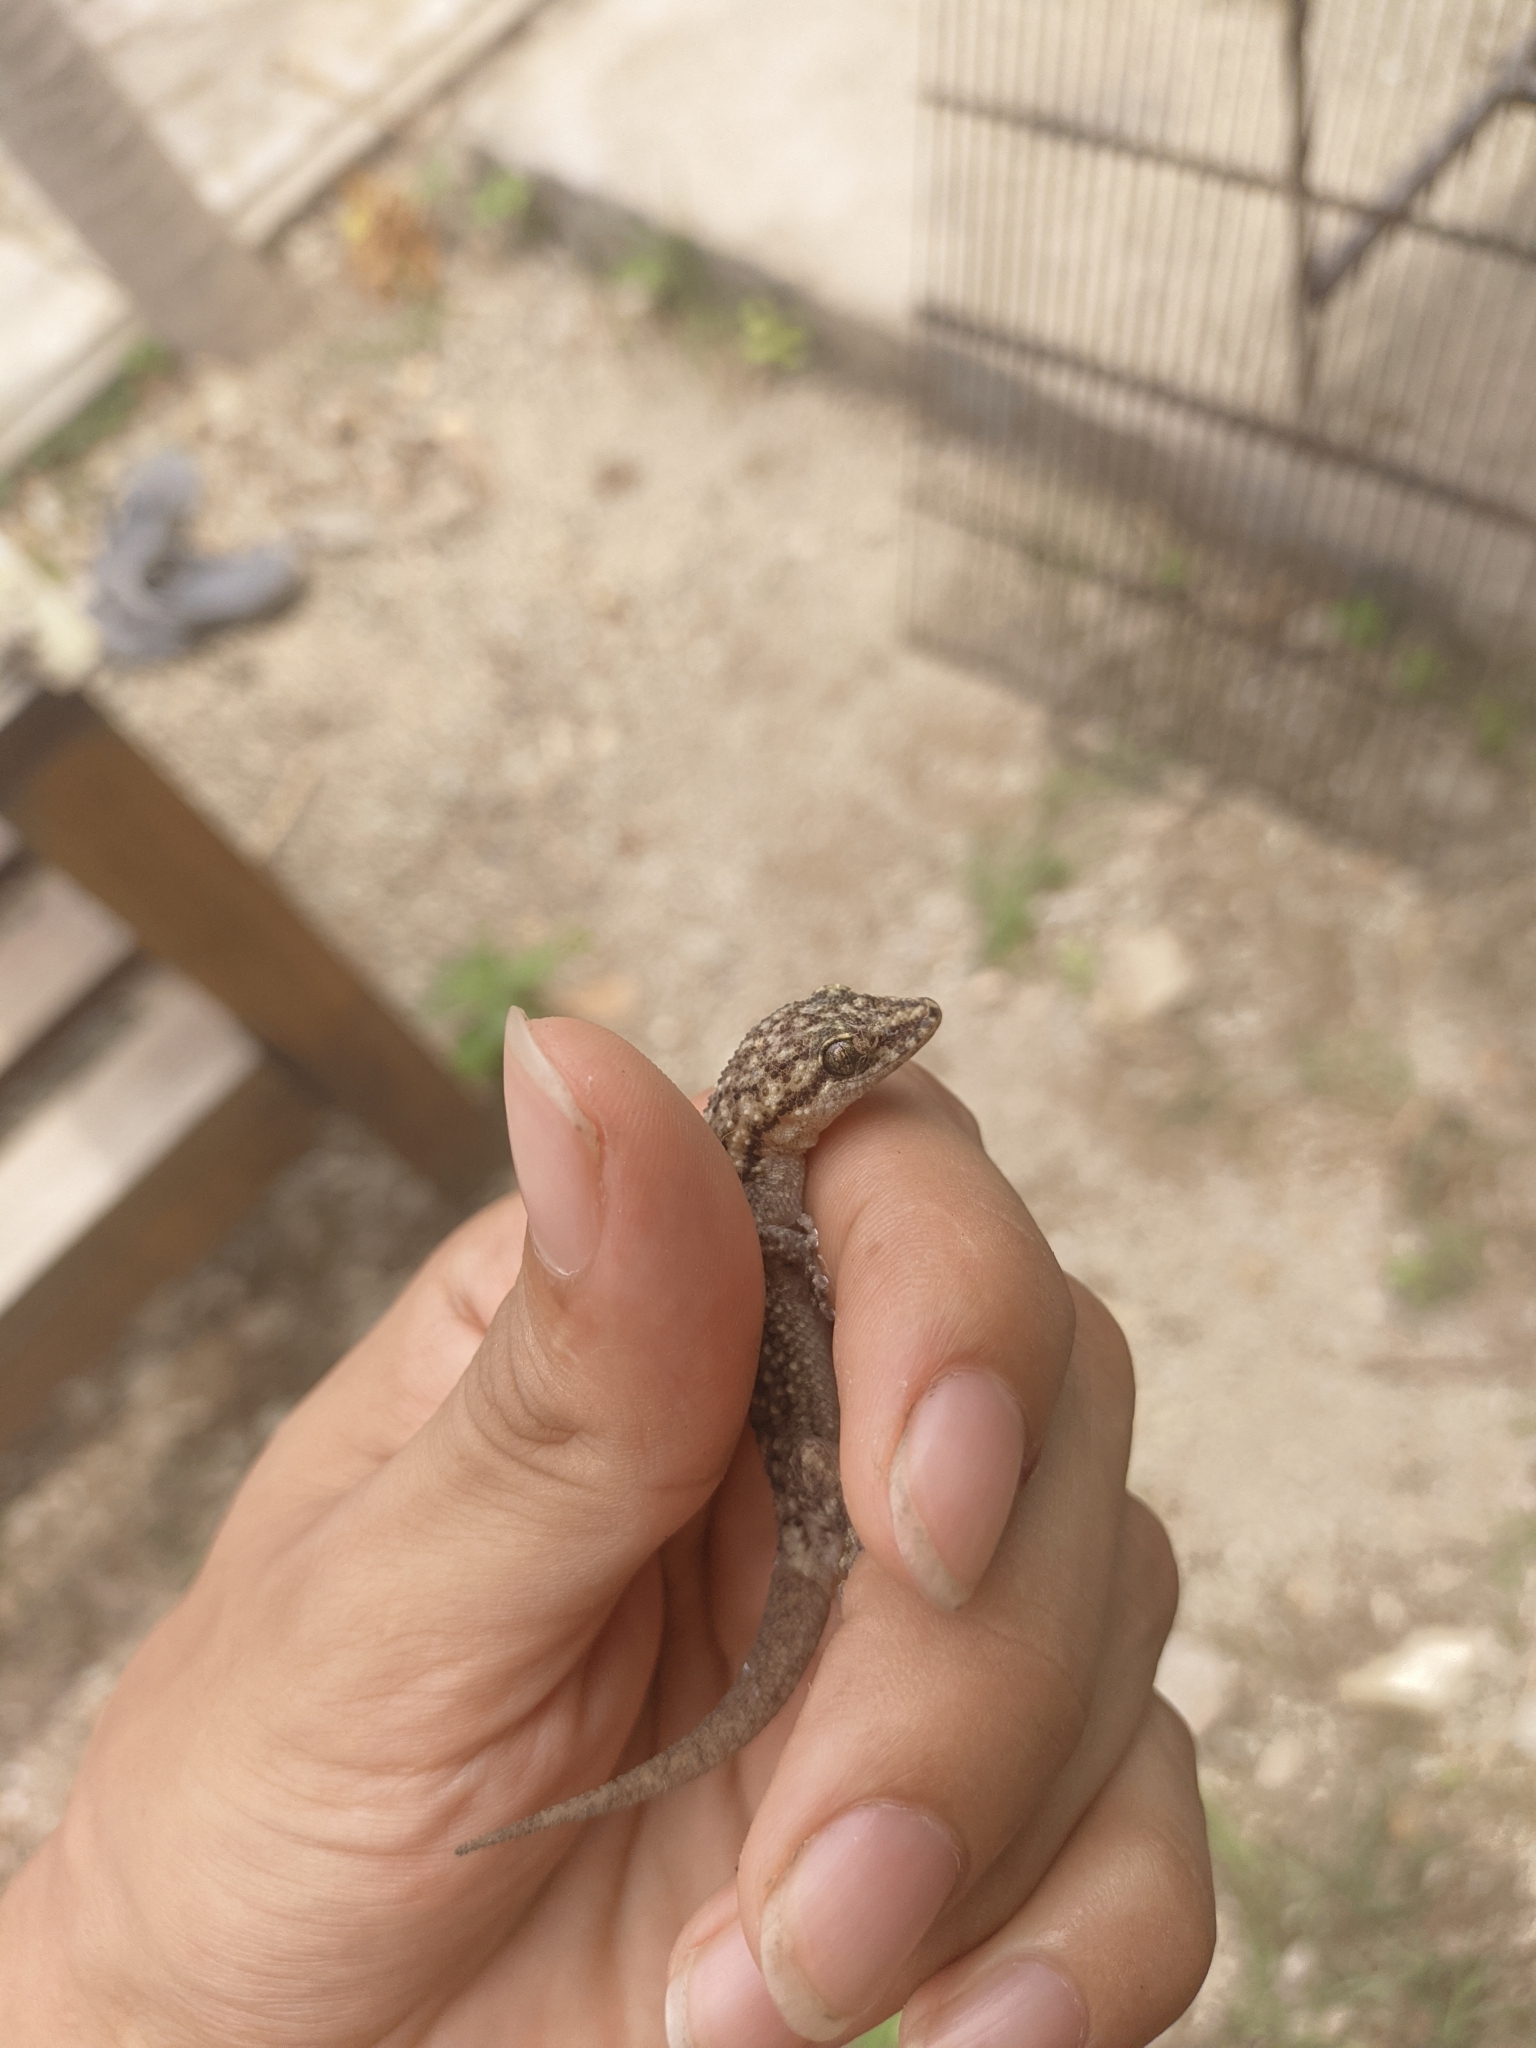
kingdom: Animalia
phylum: Chordata
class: Squamata
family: Phyllodactylidae
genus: Phyllodactylus
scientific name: Phyllodactylus ventralis
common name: Margarita leaf-toed gecko
